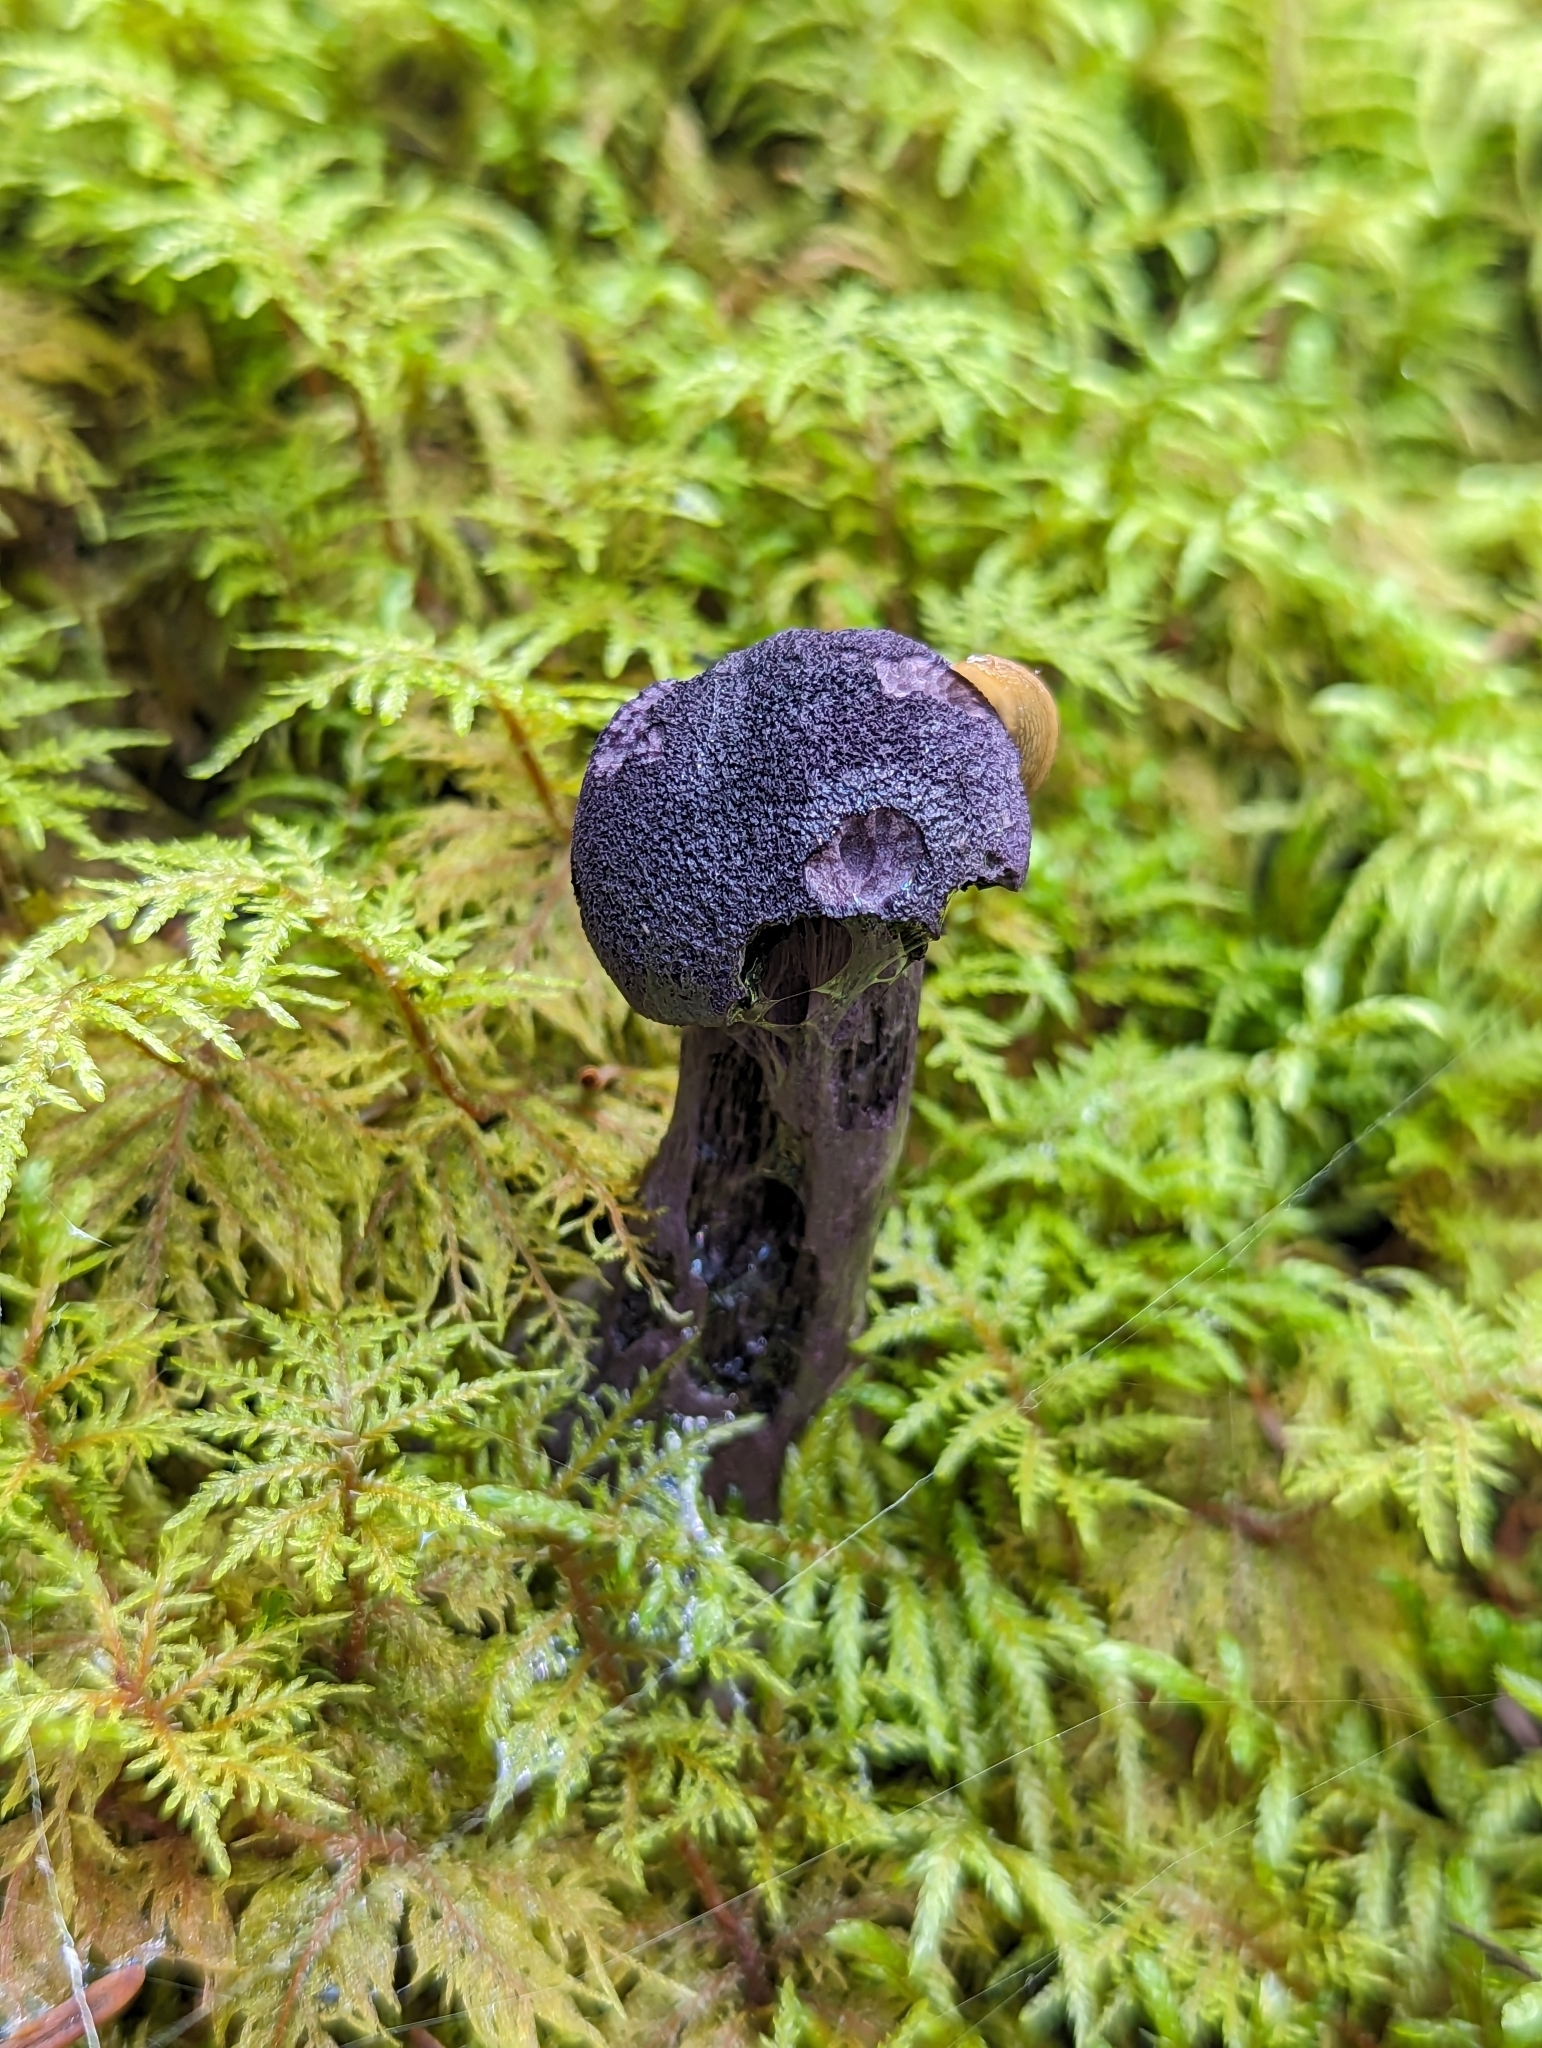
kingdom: Fungi
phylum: Basidiomycota
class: Agaricomycetes
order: Agaricales
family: Cortinariaceae
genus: Cortinarius
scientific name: Cortinarius violaceus
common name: Violet webcap
